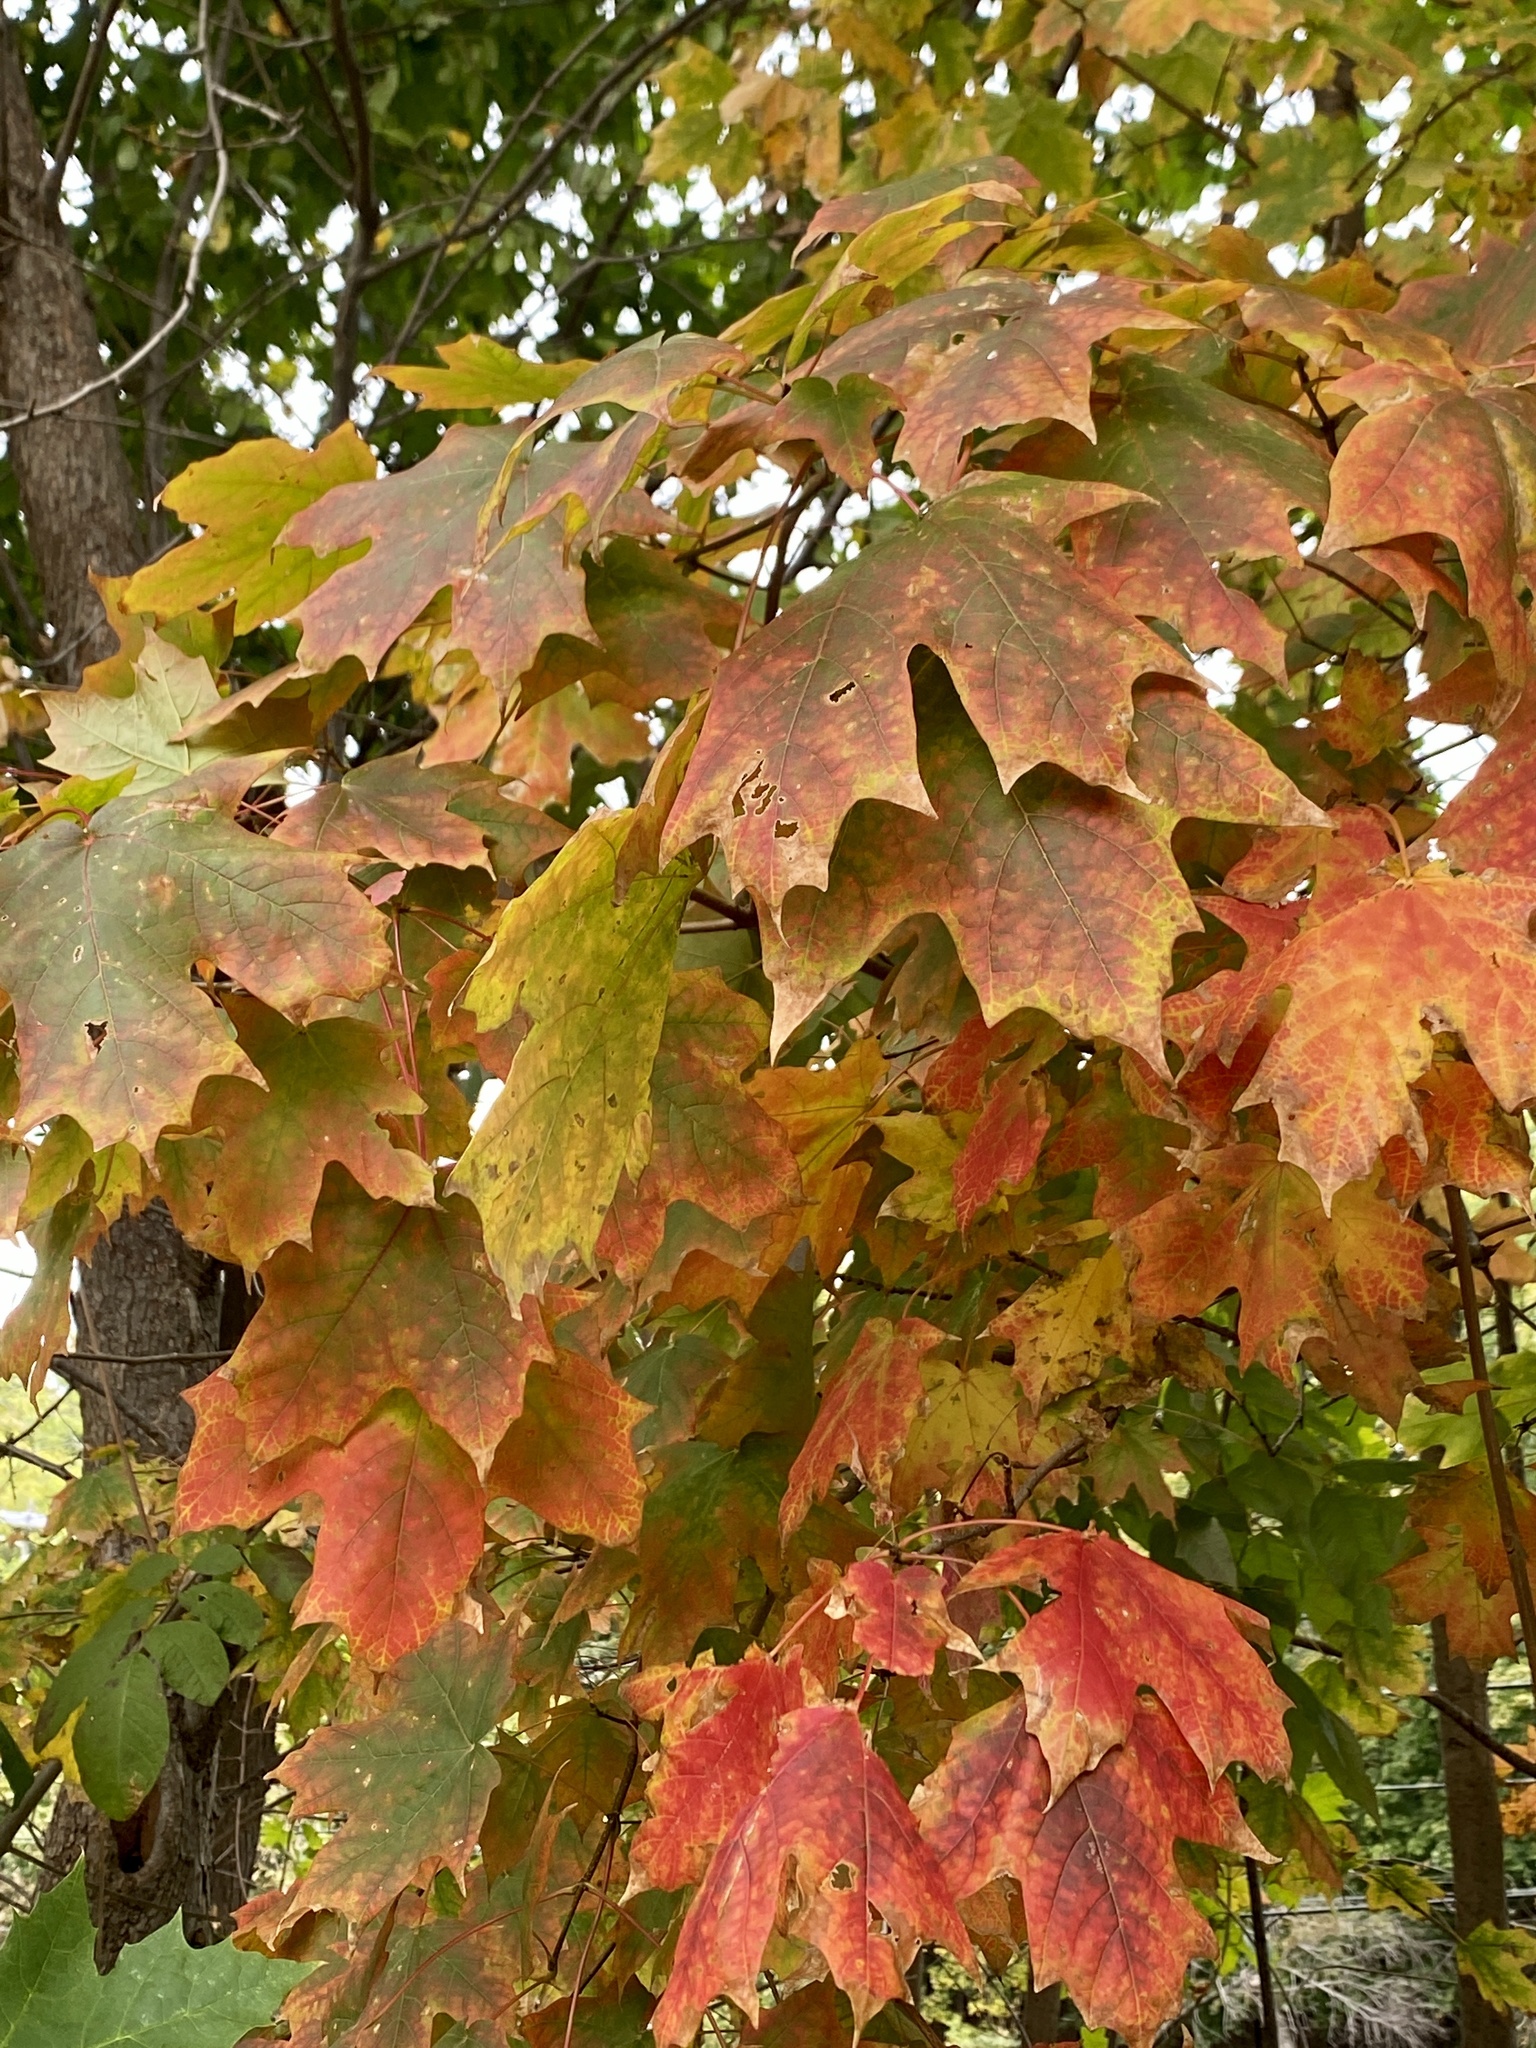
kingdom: Plantae
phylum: Tracheophyta
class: Magnoliopsida
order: Sapindales
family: Sapindaceae
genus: Acer
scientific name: Acer saccharum
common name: Sugar maple
